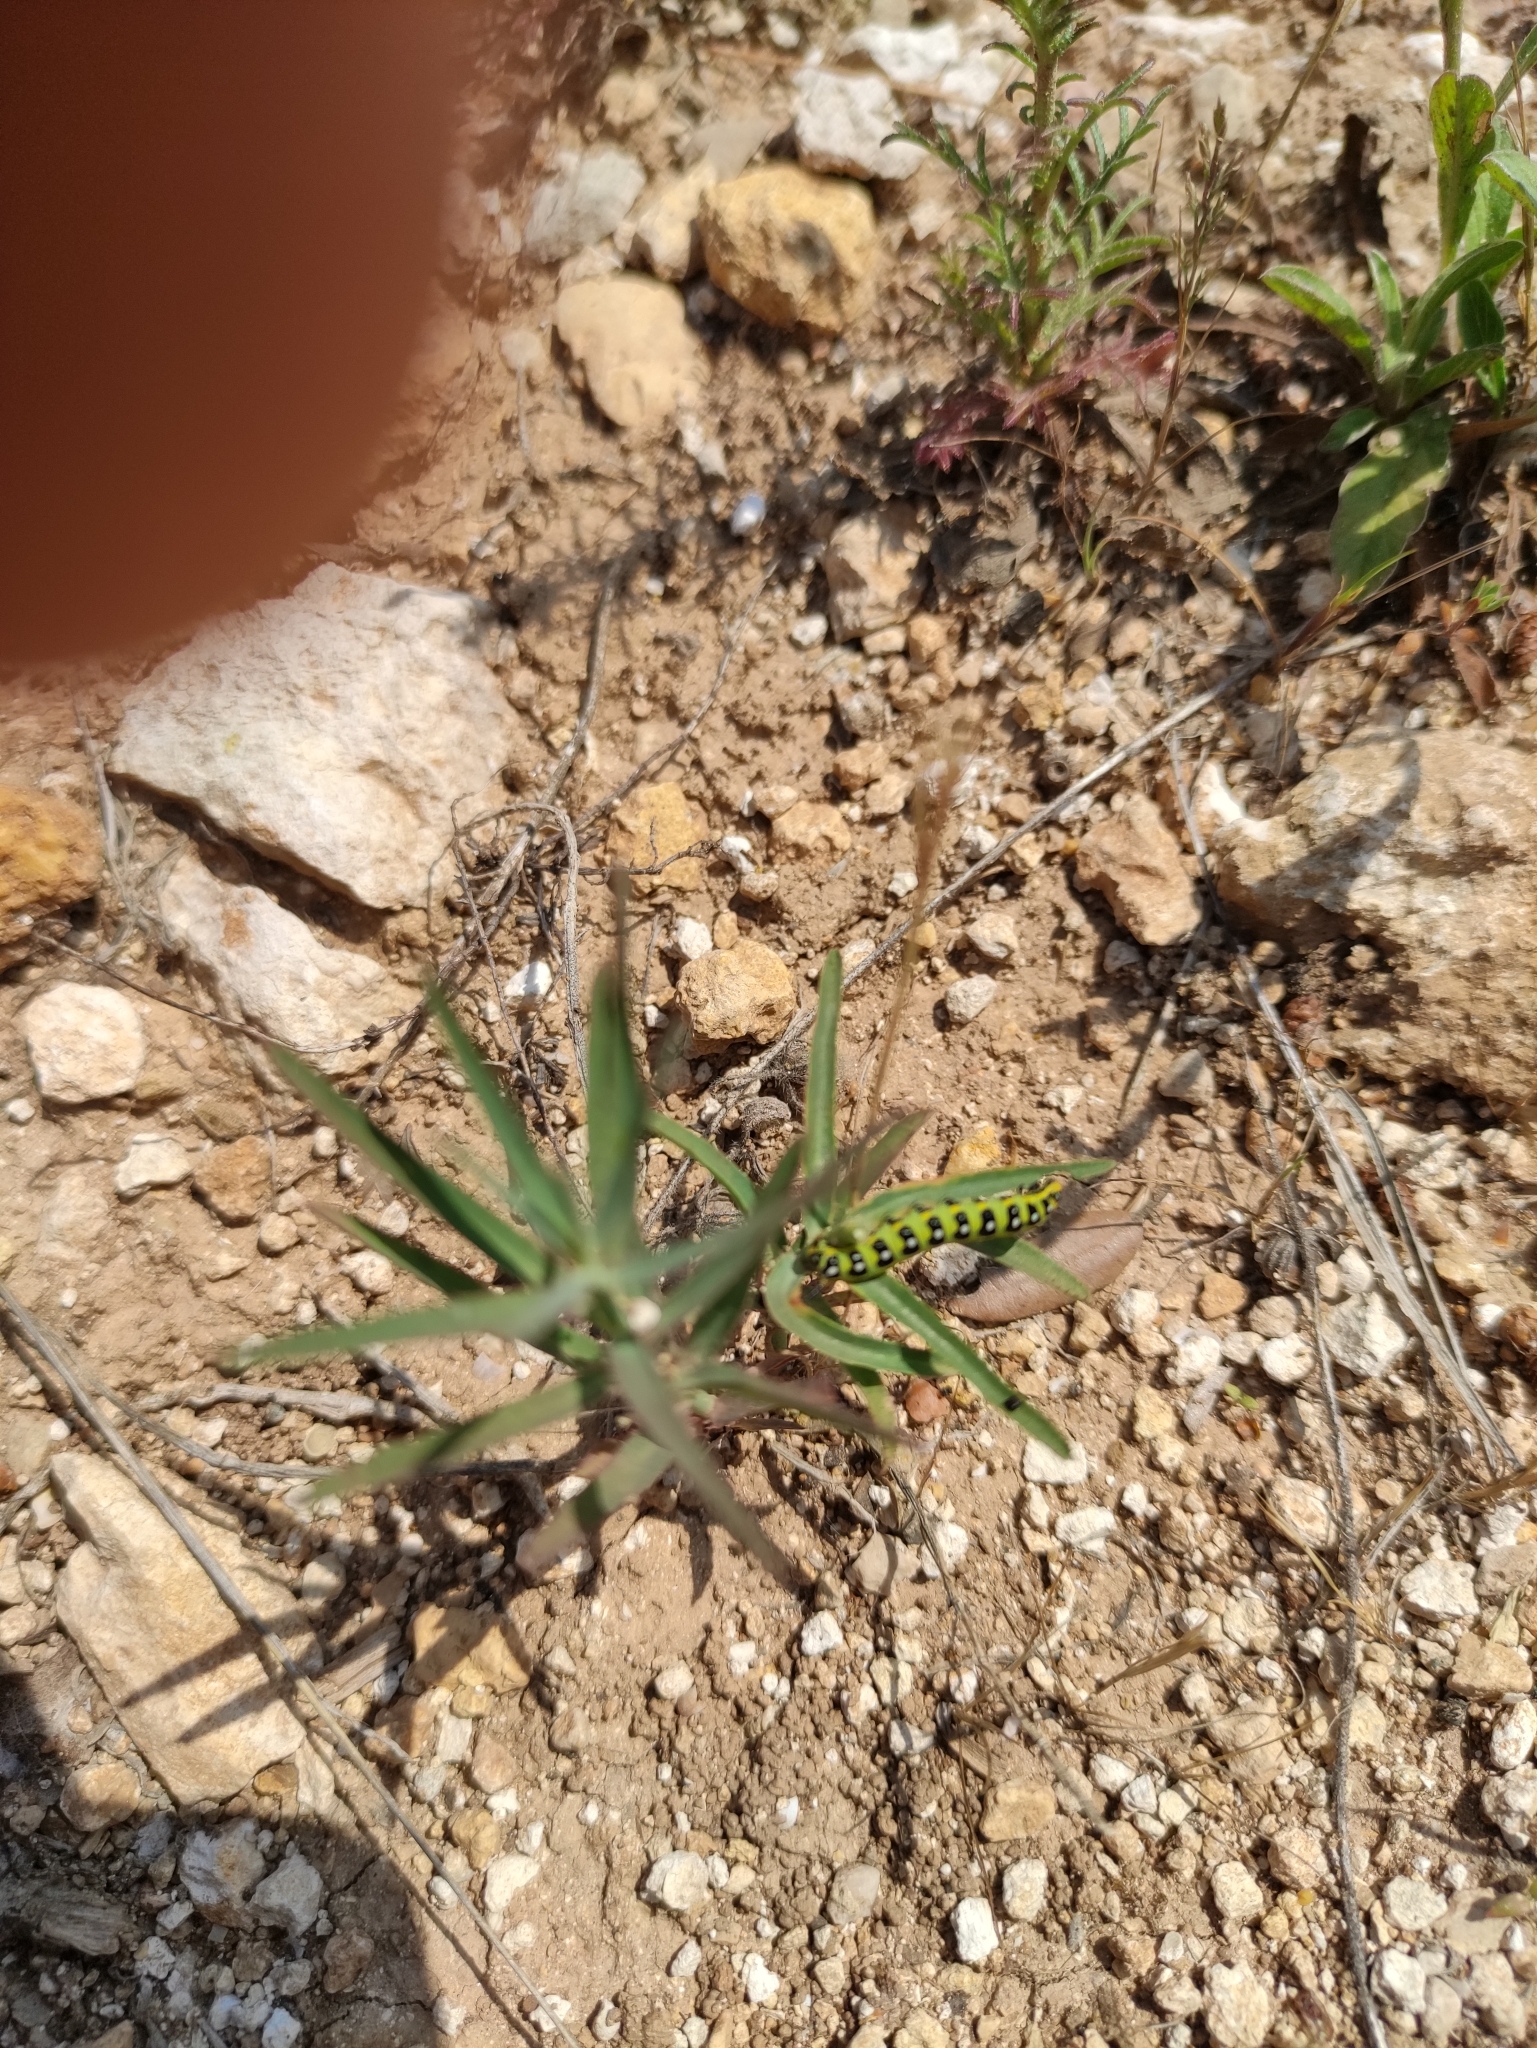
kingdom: Animalia
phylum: Arthropoda
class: Insecta
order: Lepidoptera
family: Sphingidae
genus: Hyles
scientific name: Hyles euphorbiae
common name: Spurge hawk-moth
